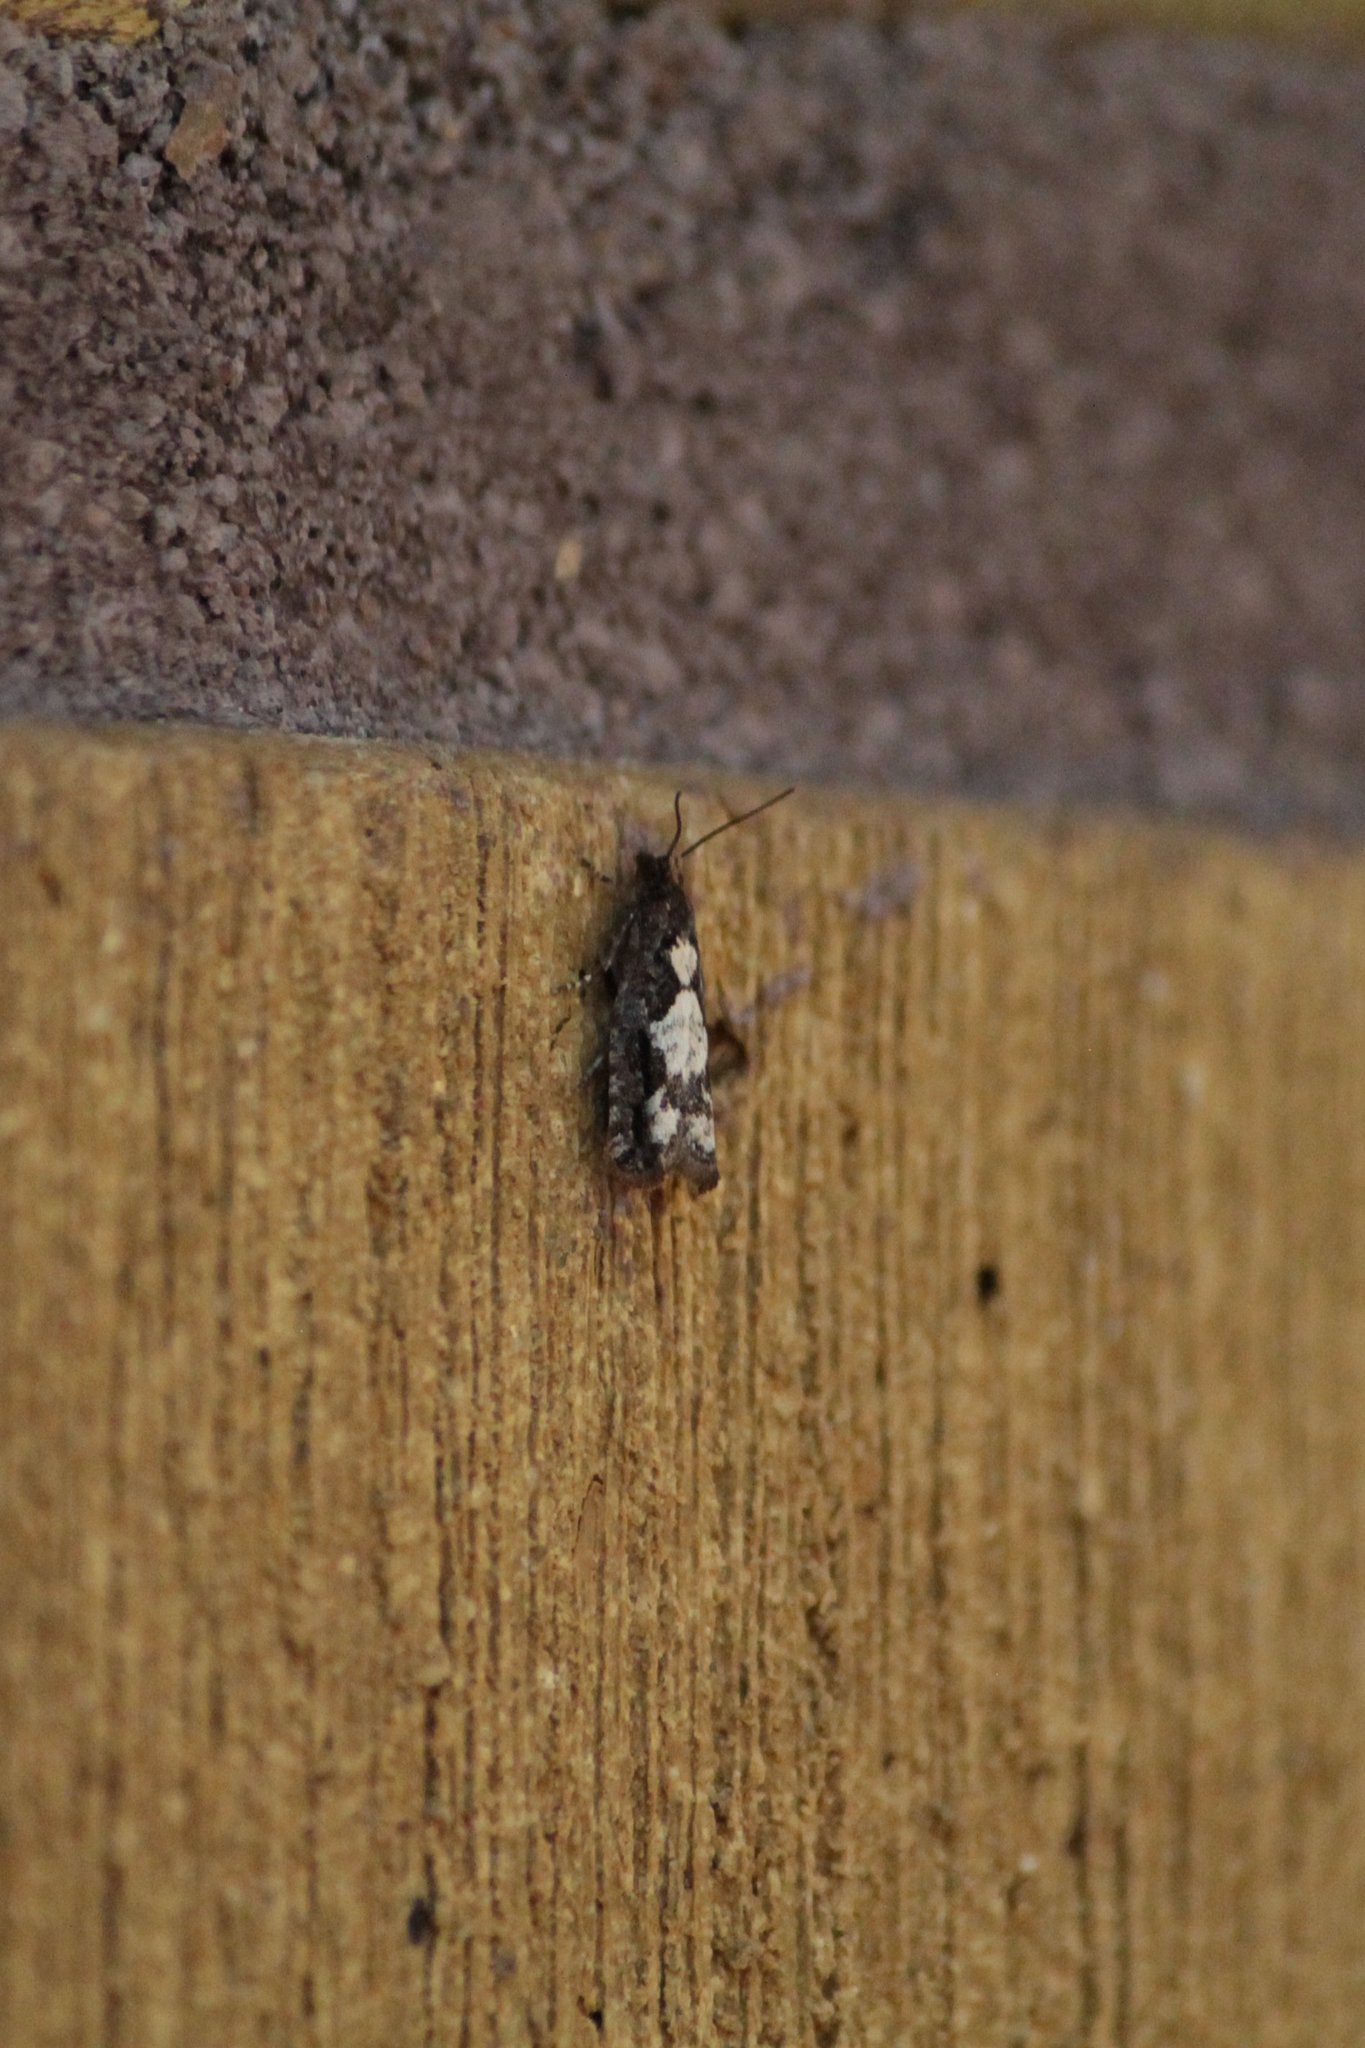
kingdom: Animalia
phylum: Arthropoda
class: Insecta
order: Lepidoptera
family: Tortricidae
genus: Epinotia
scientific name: Epinotia crenana
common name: Highland bell
